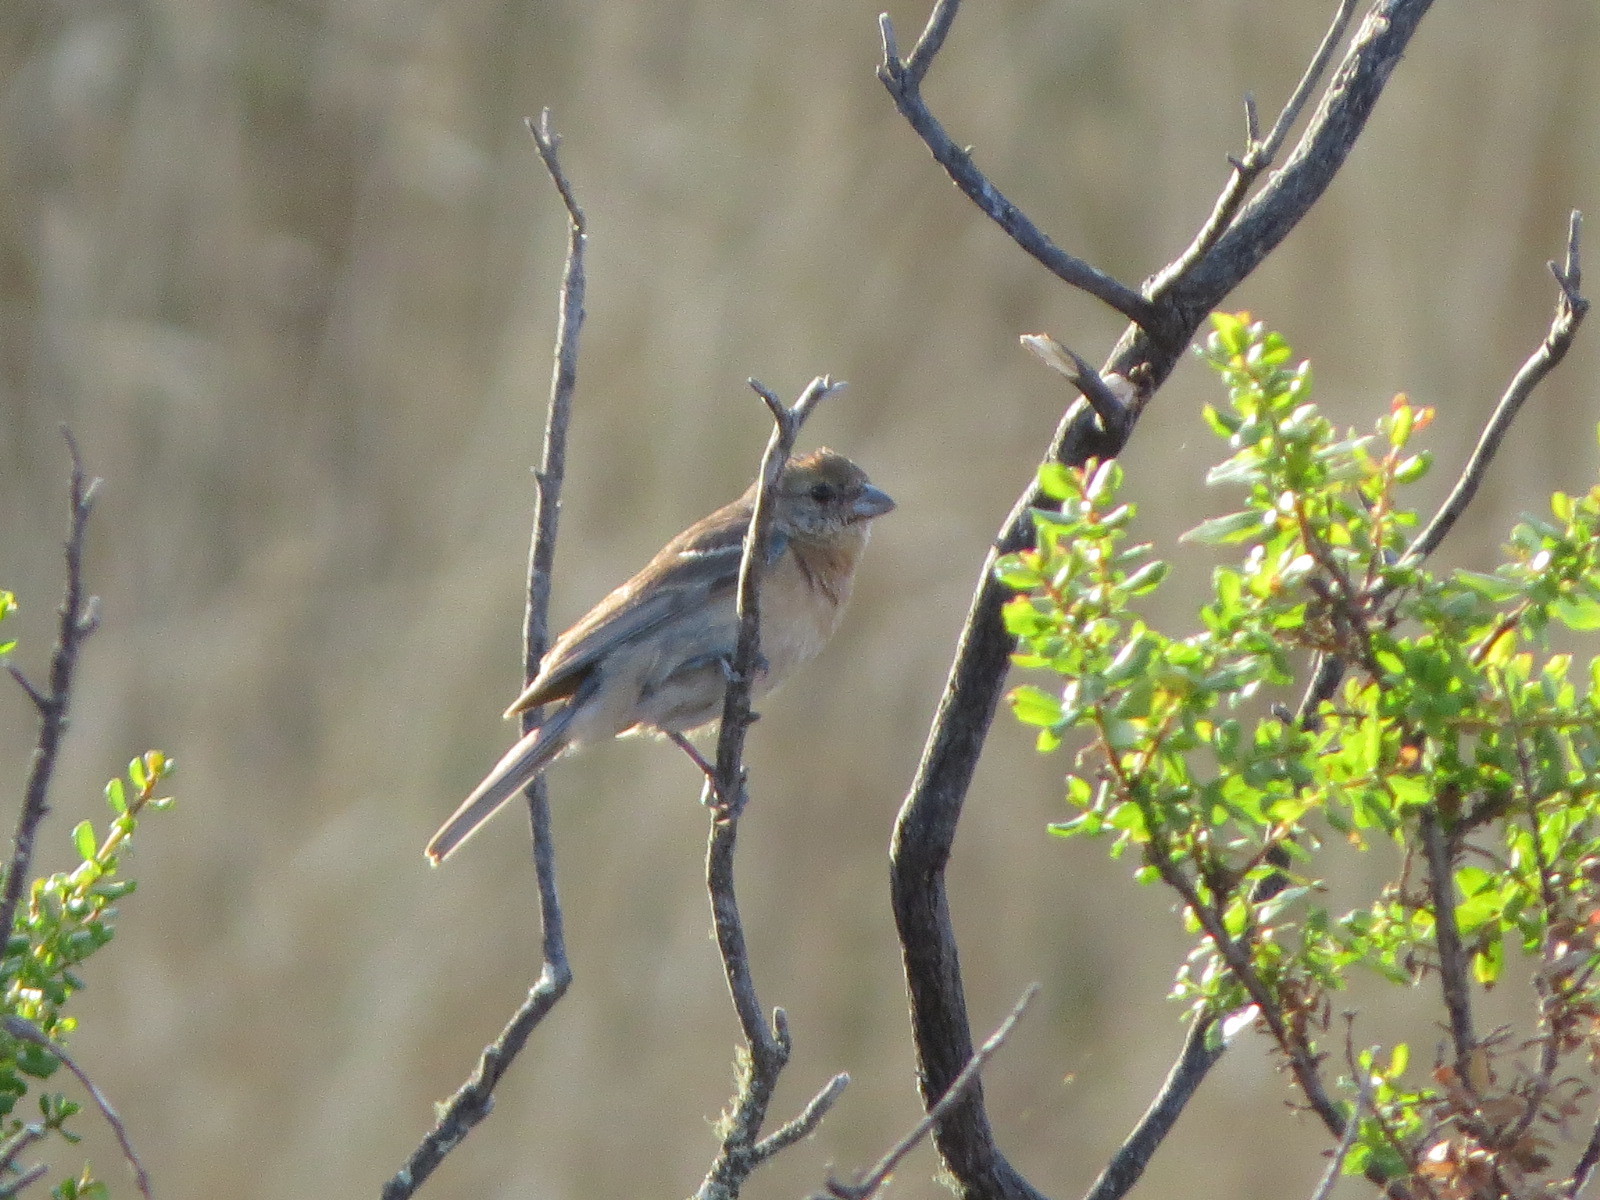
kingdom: Animalia
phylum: Chordata
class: Aves
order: Passeriformes
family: Cardinalidae
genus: Passerina
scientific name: Passerina amoena
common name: Lazuli bunting
